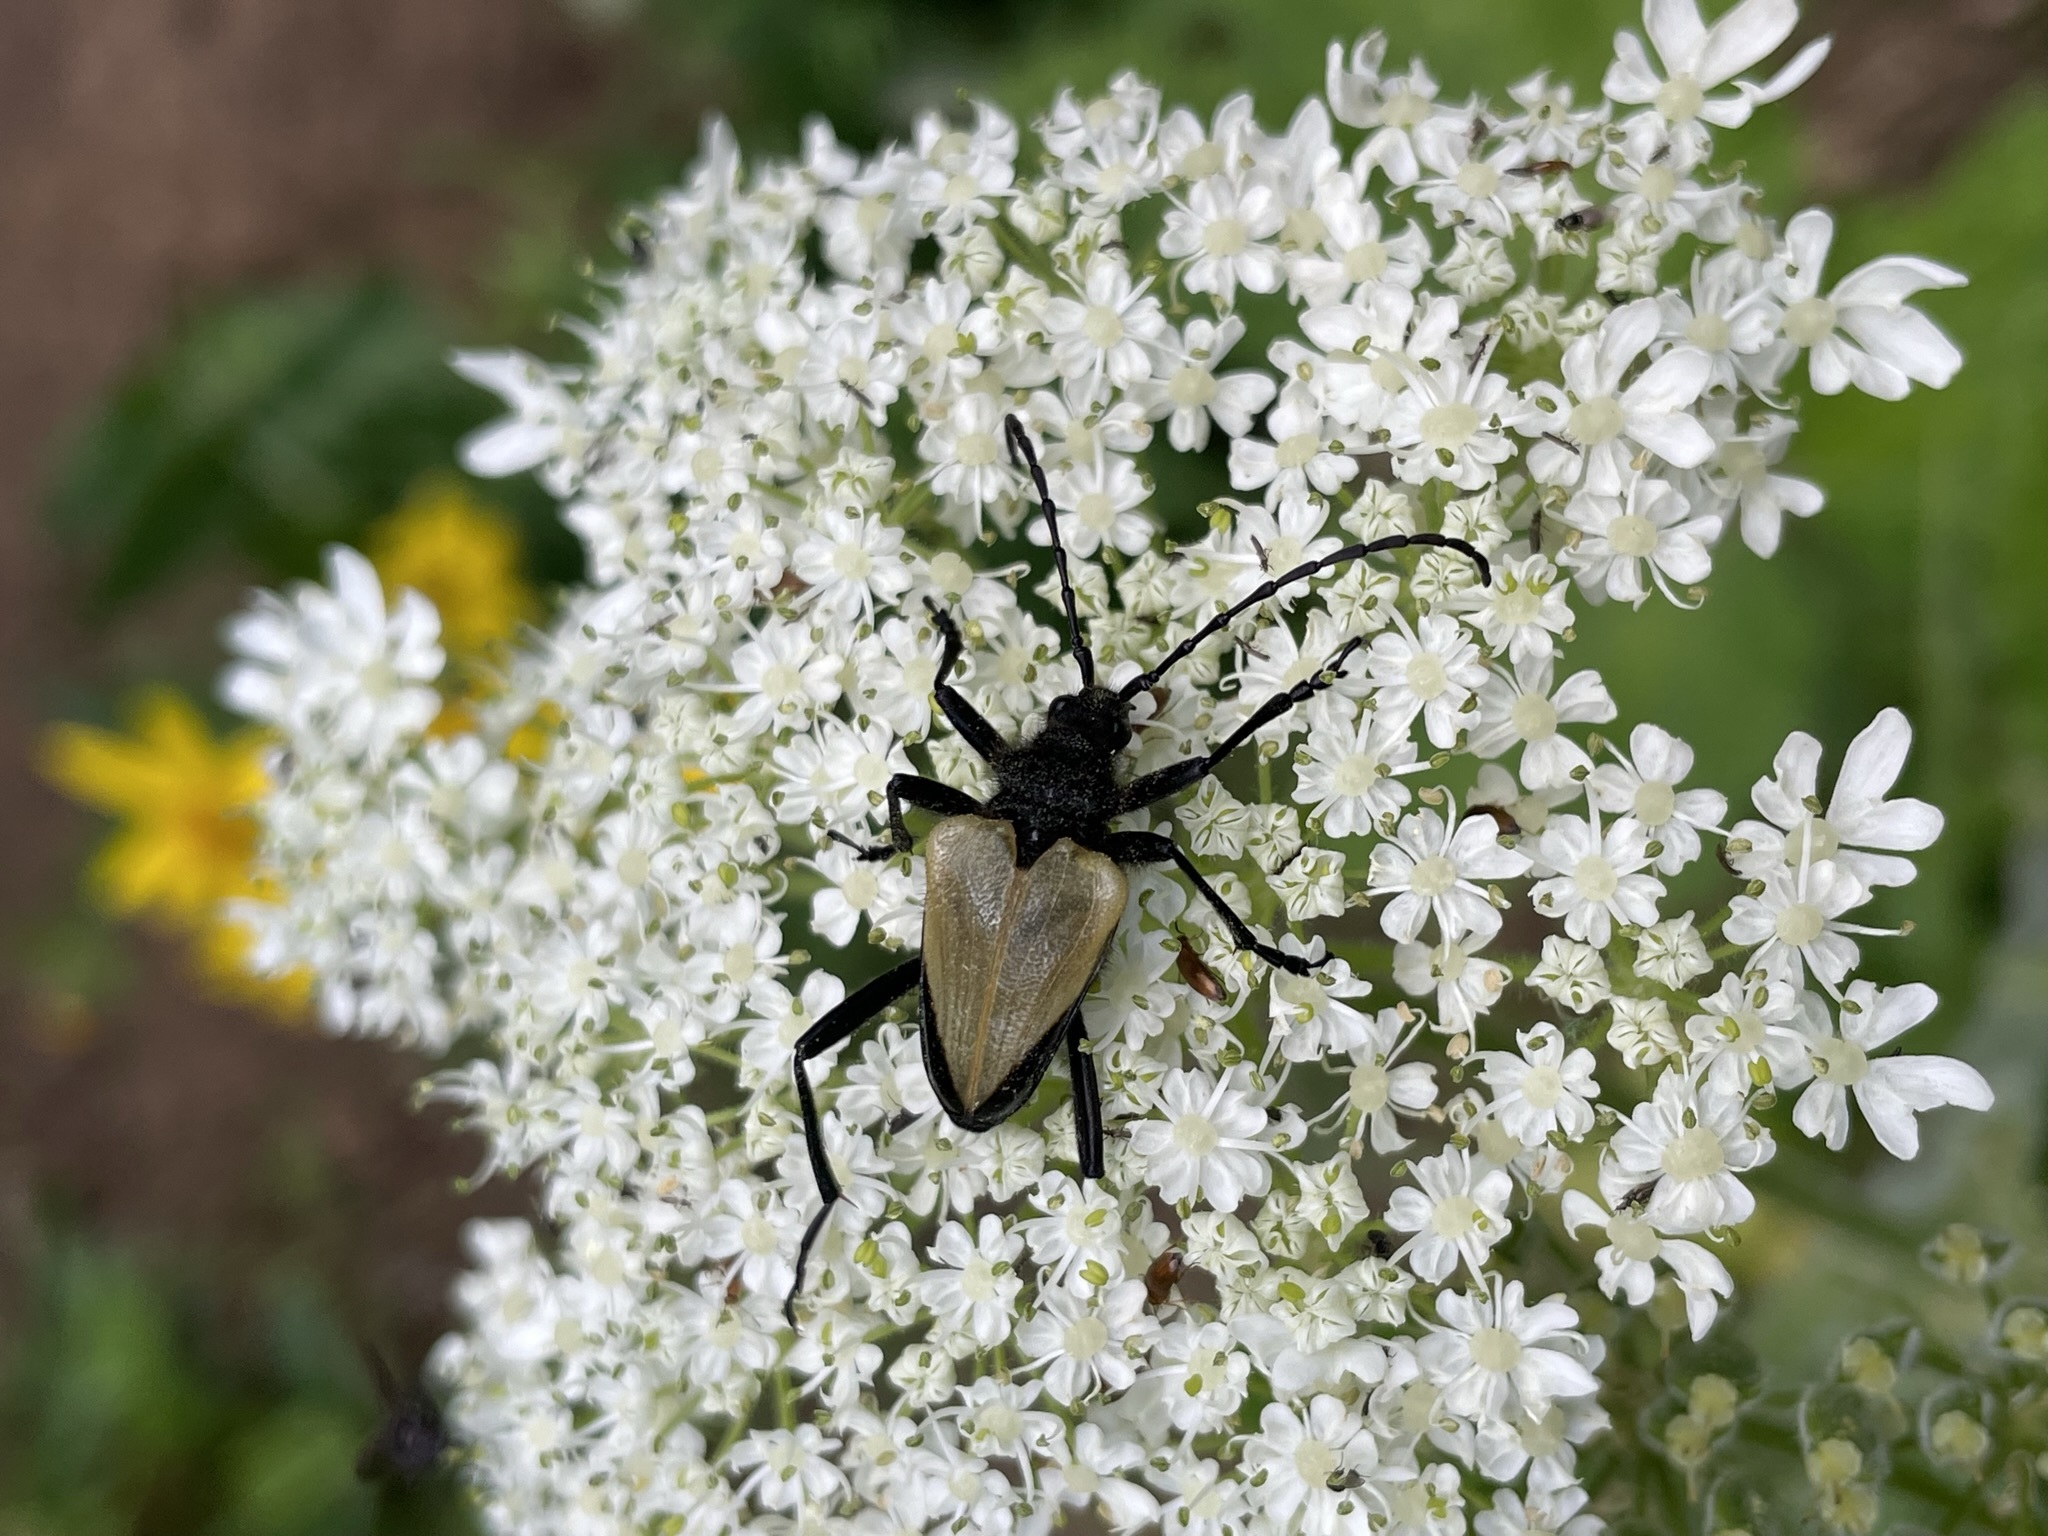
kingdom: Animalia
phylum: Arthropoda
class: Insecta
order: Coleoptera
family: Cerambycidae
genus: Pachyta
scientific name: Pachyta armata
